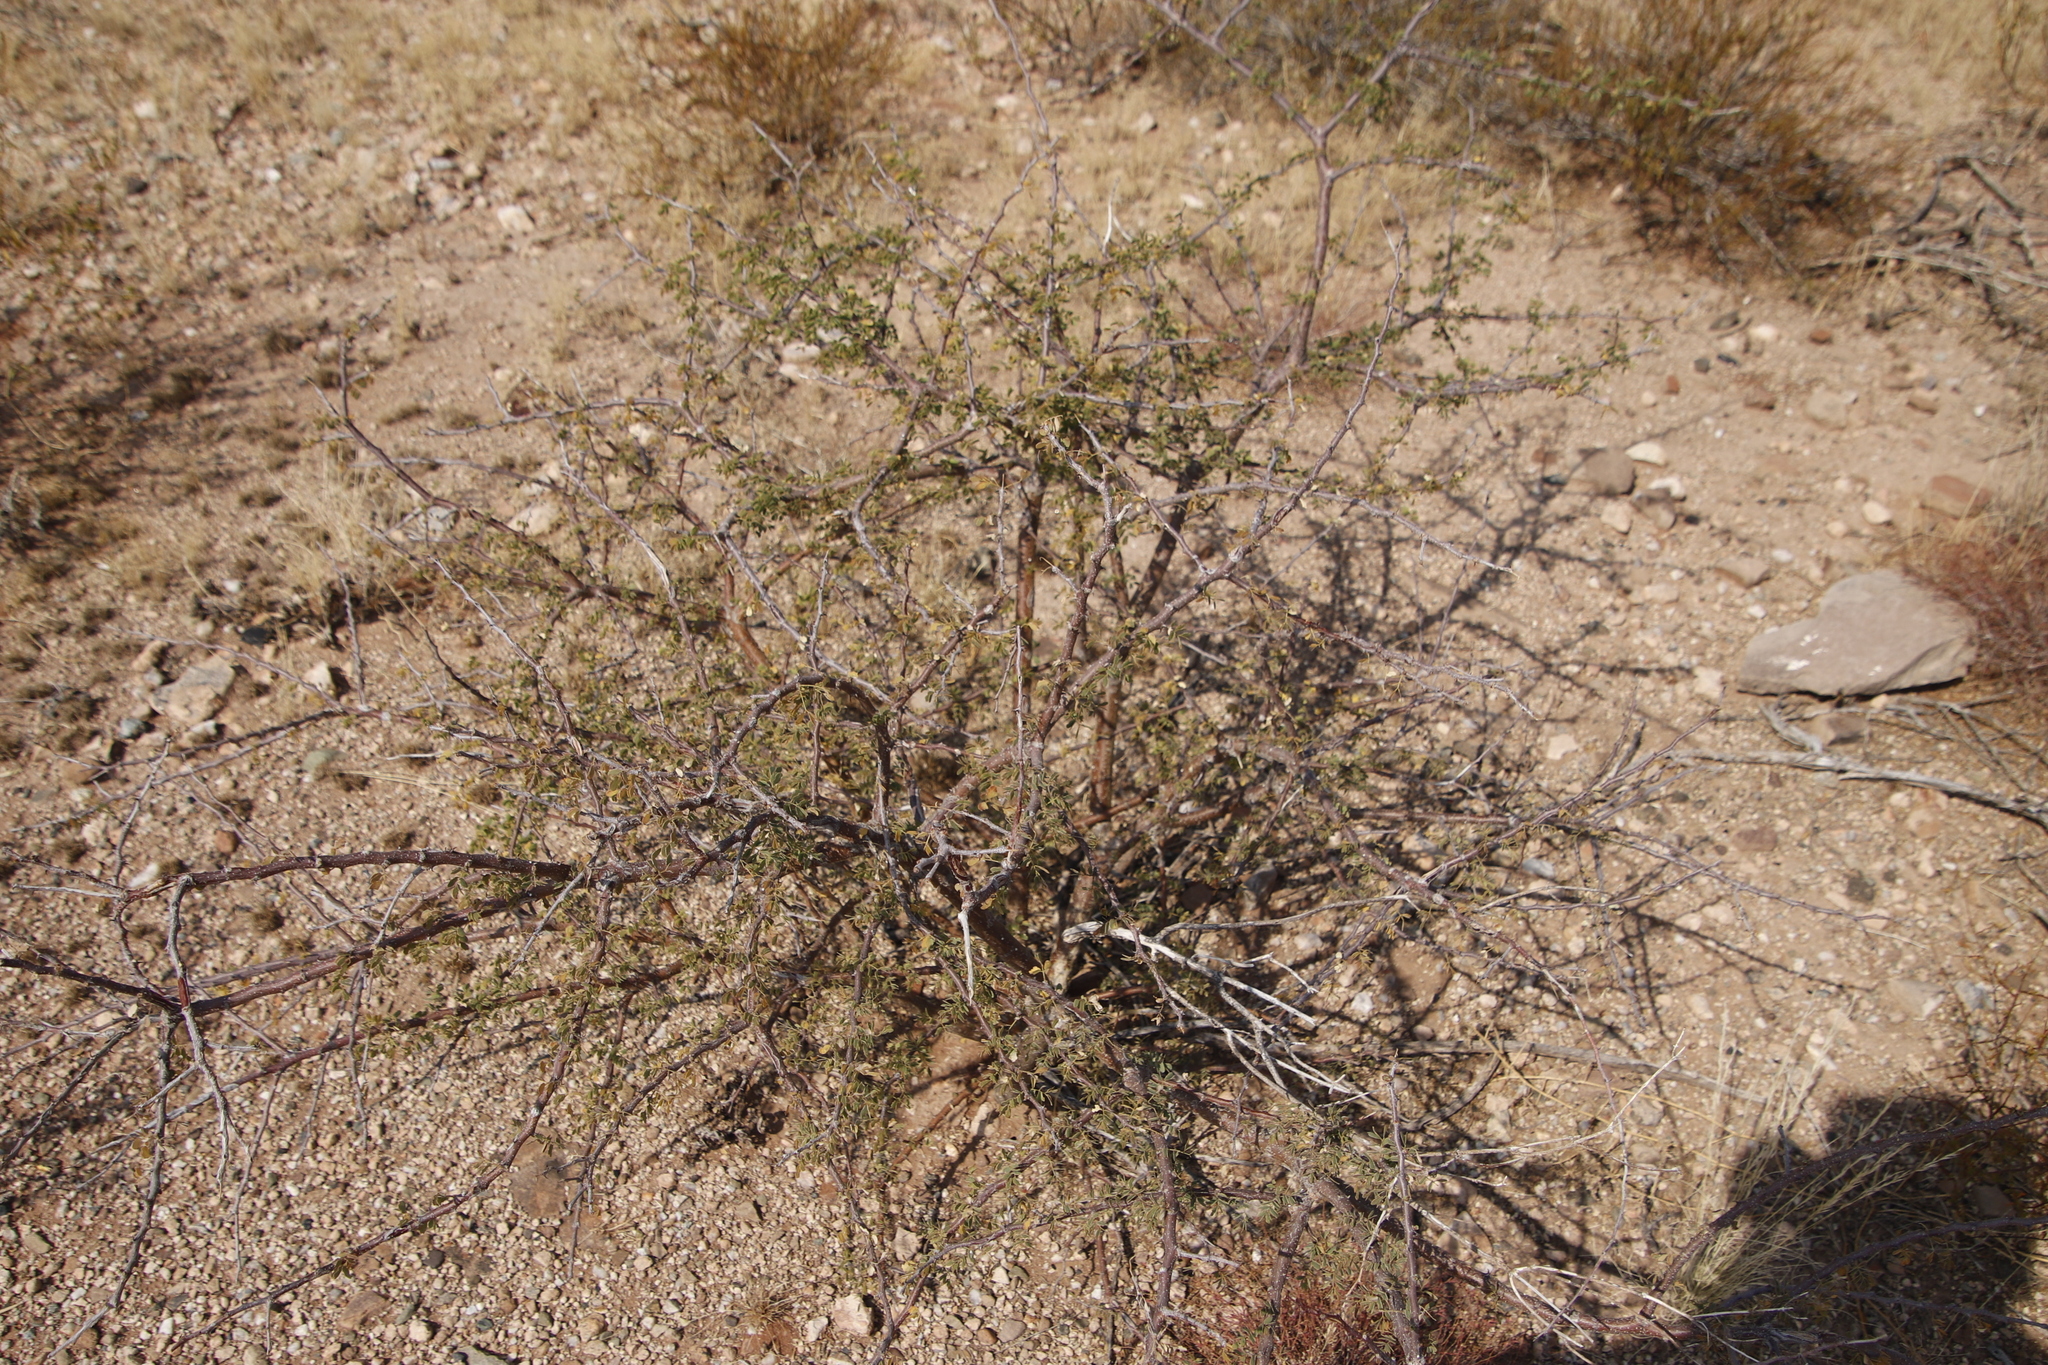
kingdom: Plantae
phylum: Tracheophyta
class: Magnoliopsida
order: Fabales
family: Fabaceae
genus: Senegalia
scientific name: Senegalia mellifera
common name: Hookthorn
